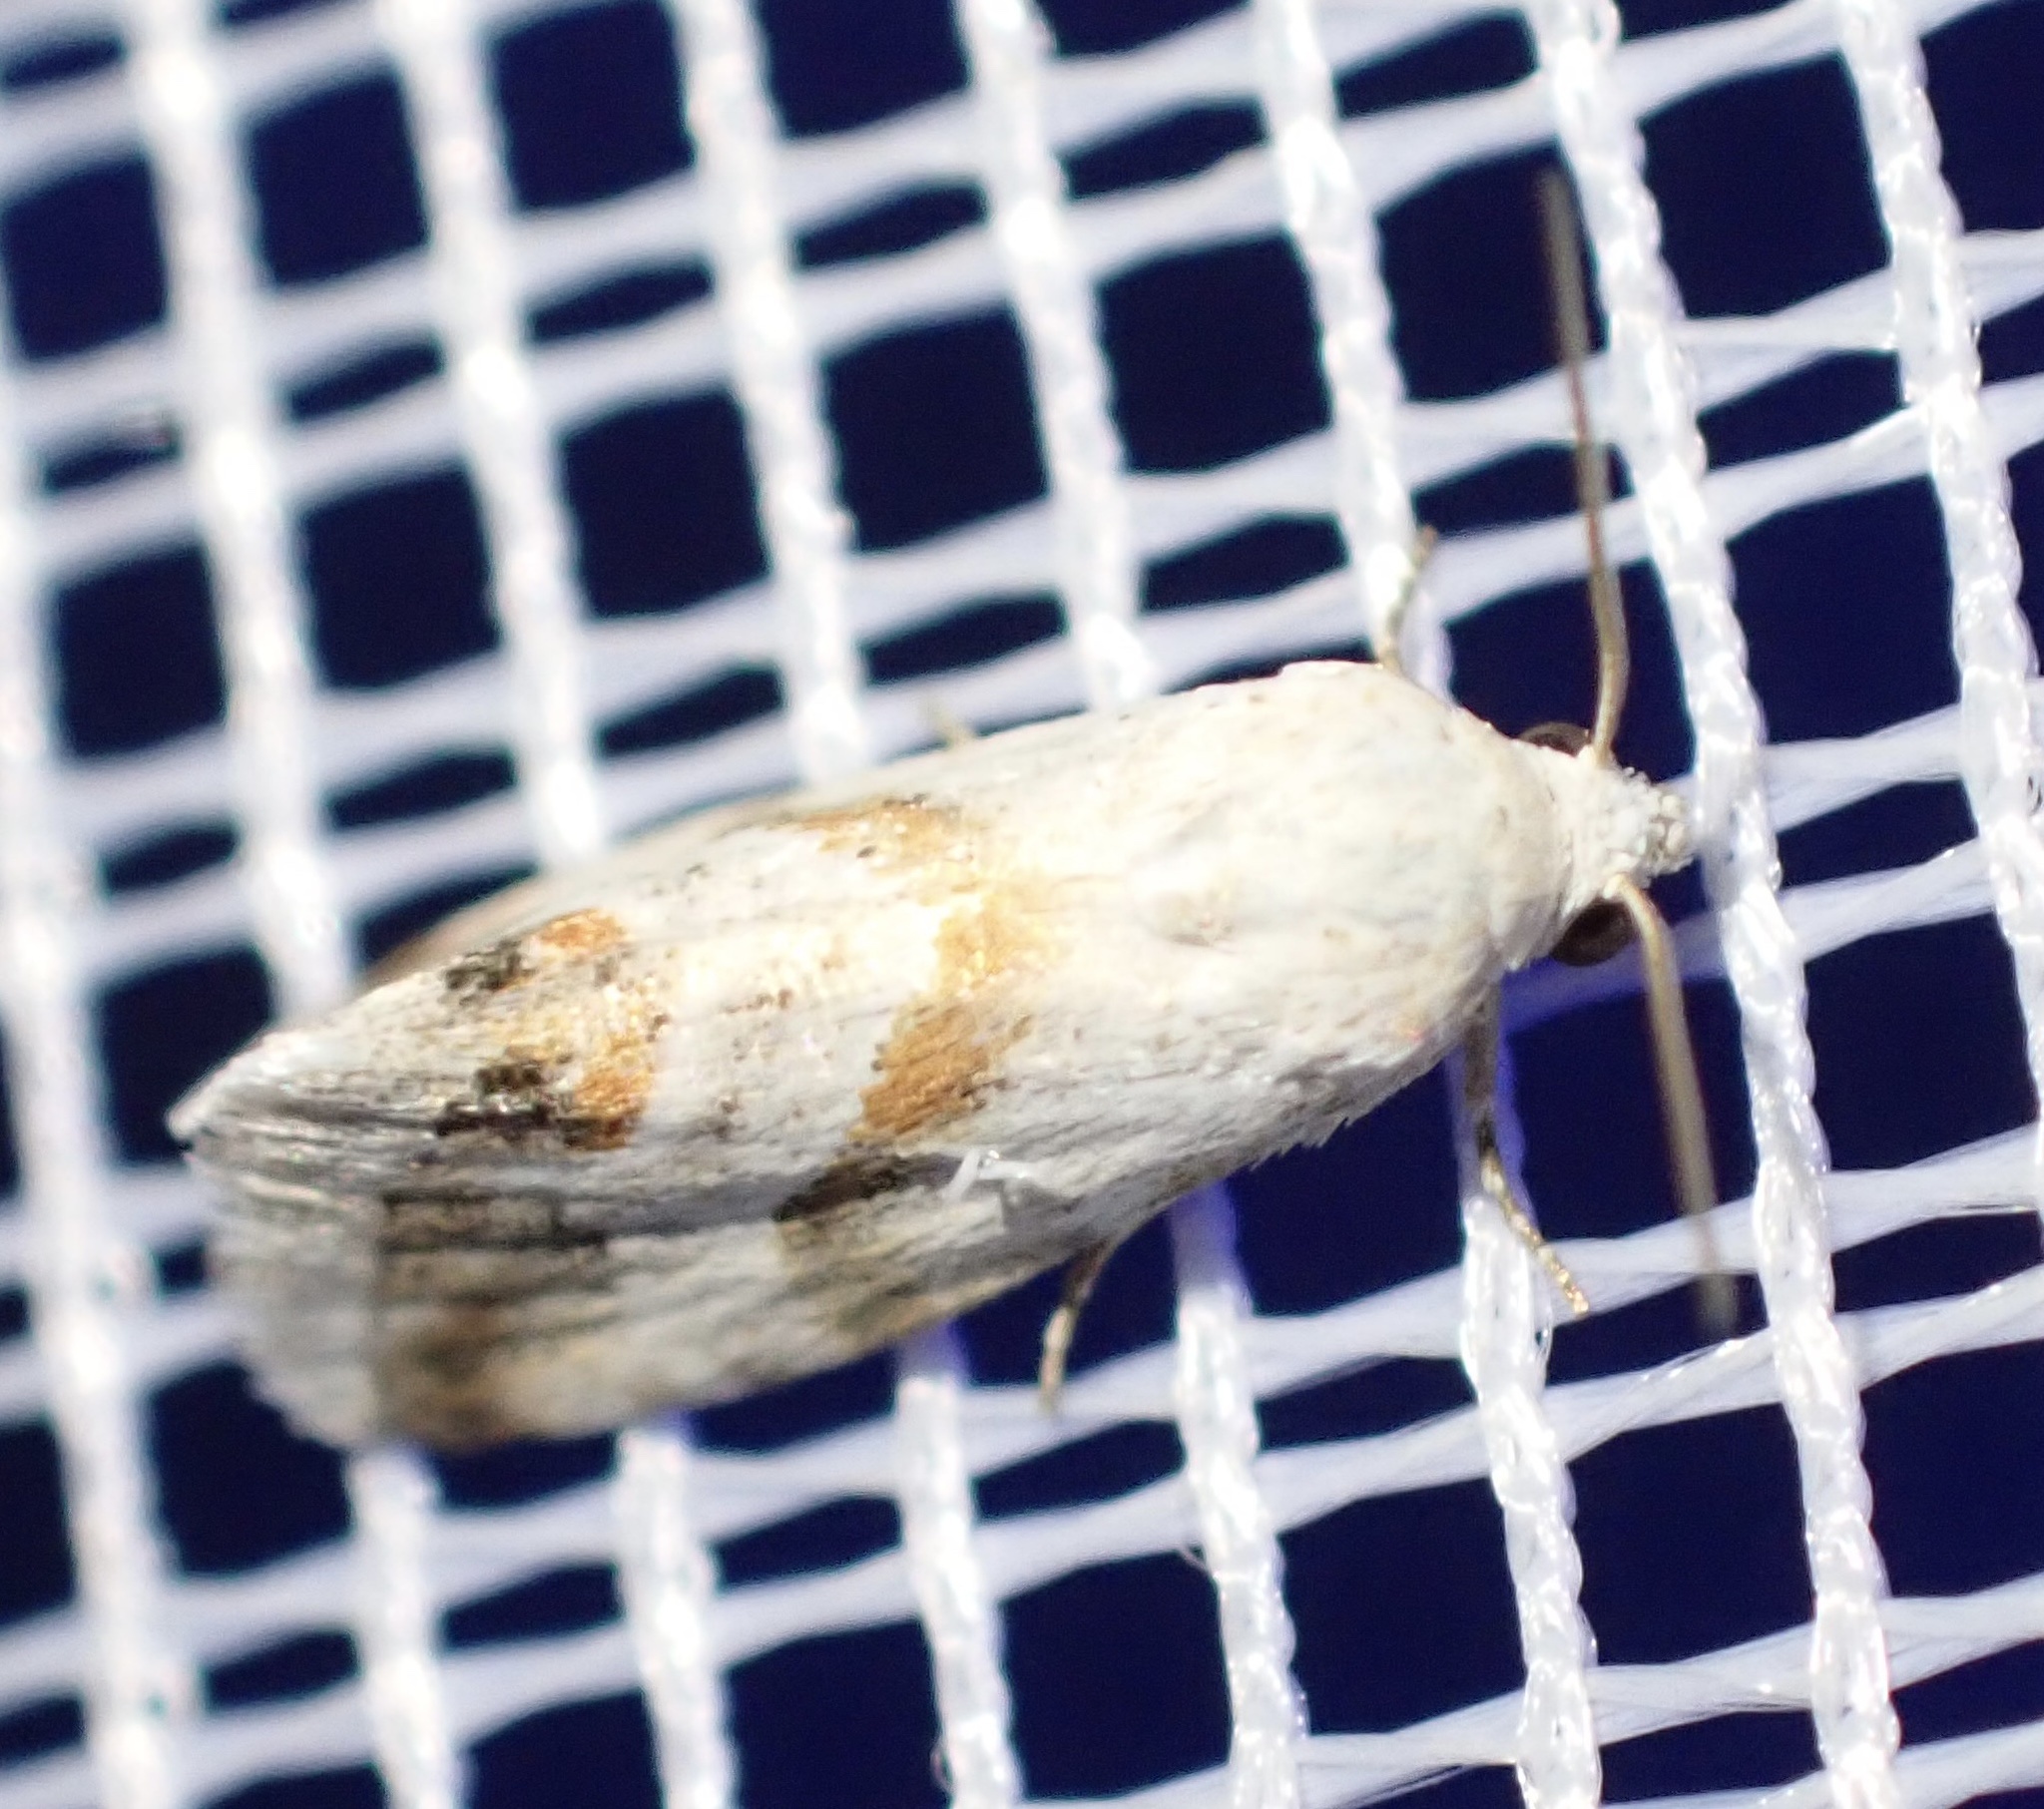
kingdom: Animalia
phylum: Arthropoda
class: Insecta
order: Lepidoptera
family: Noctuidae
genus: Eublemma
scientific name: Eublemma ornatula
